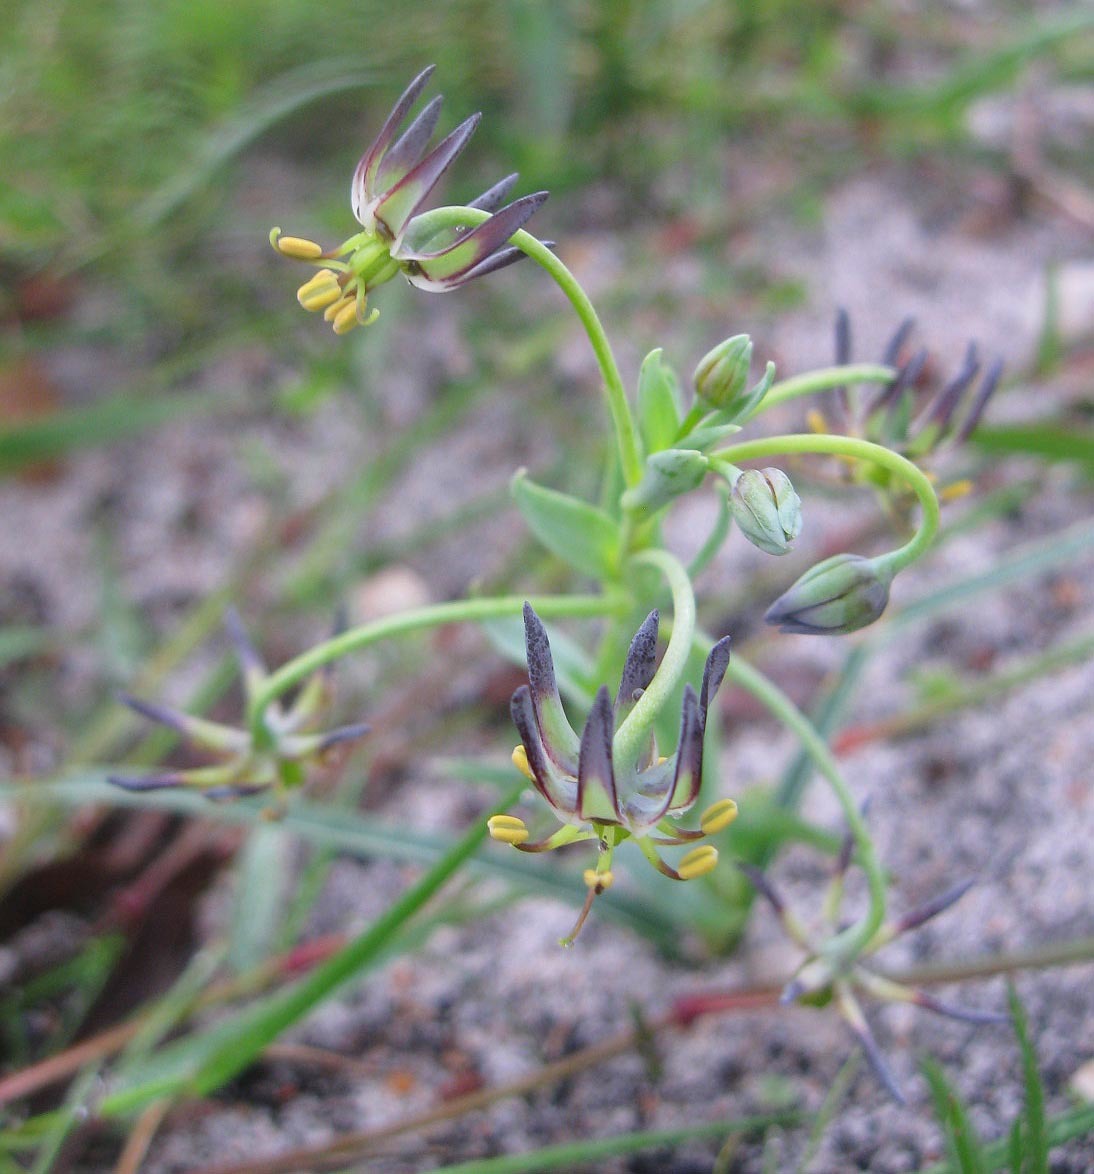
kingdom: Plantae
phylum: Tracheophyta
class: Liliopsida
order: Liliales
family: Colchicaceae
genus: Ornithoglossum
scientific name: Ornithoglossum viride
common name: Cape poison-onion
